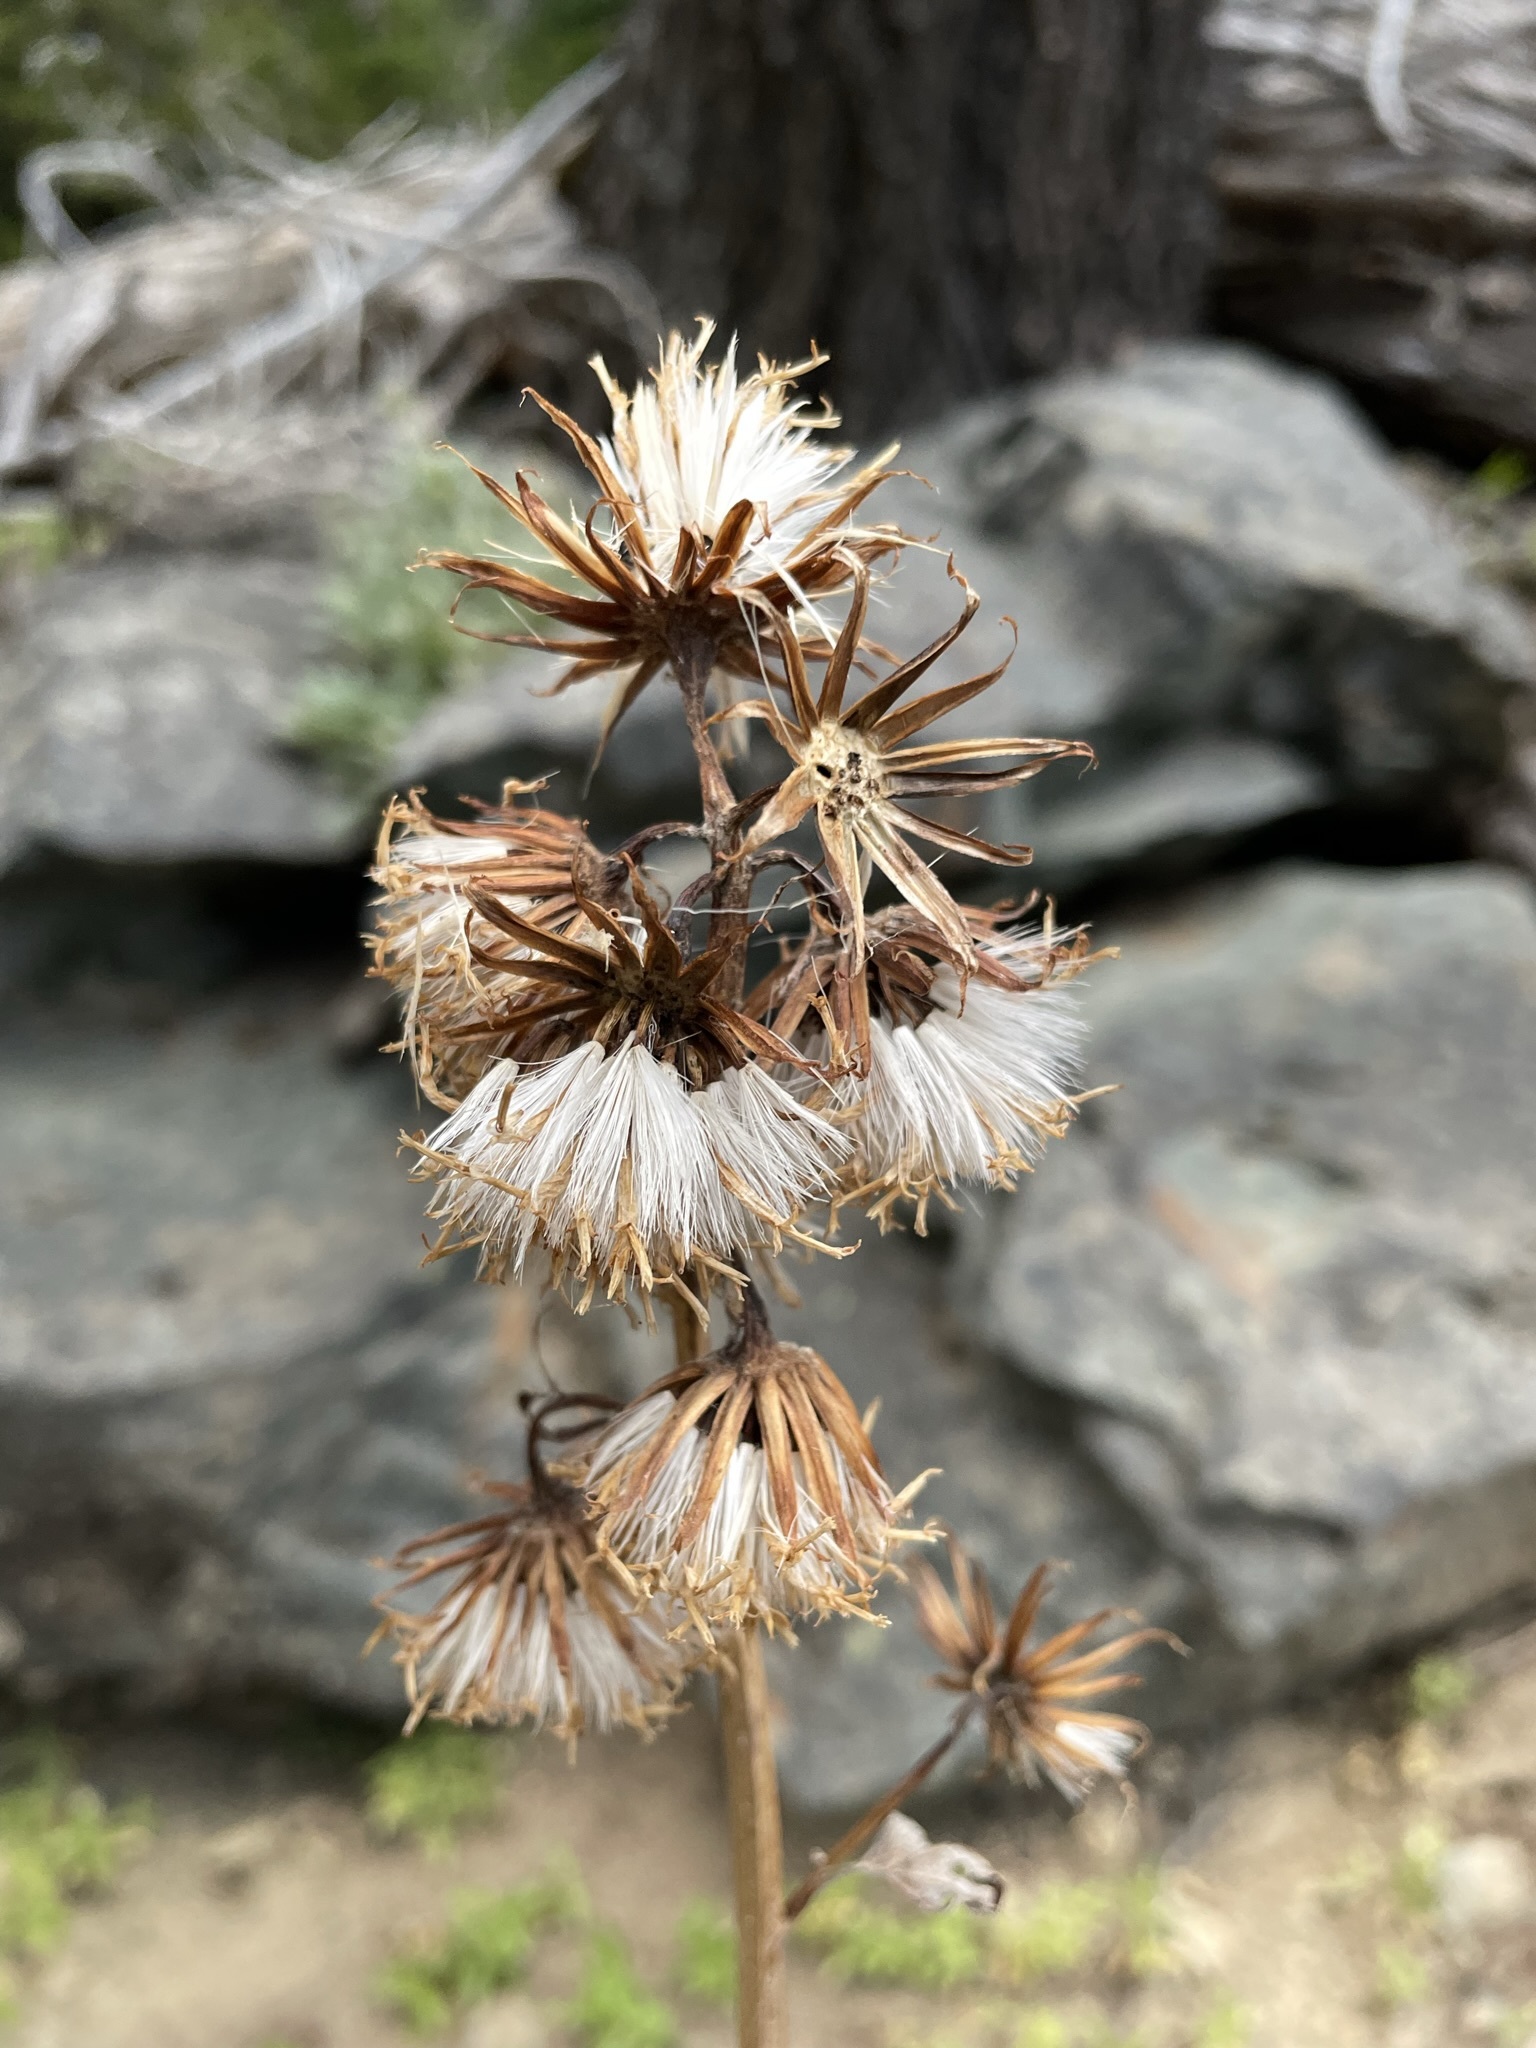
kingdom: Plantae
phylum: Tracheophyta
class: Magnoliopsida
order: Asterales
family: Asteraceae
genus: Cacaliopsis
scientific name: Cacaliopsis nardosmia
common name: Silvercrown
